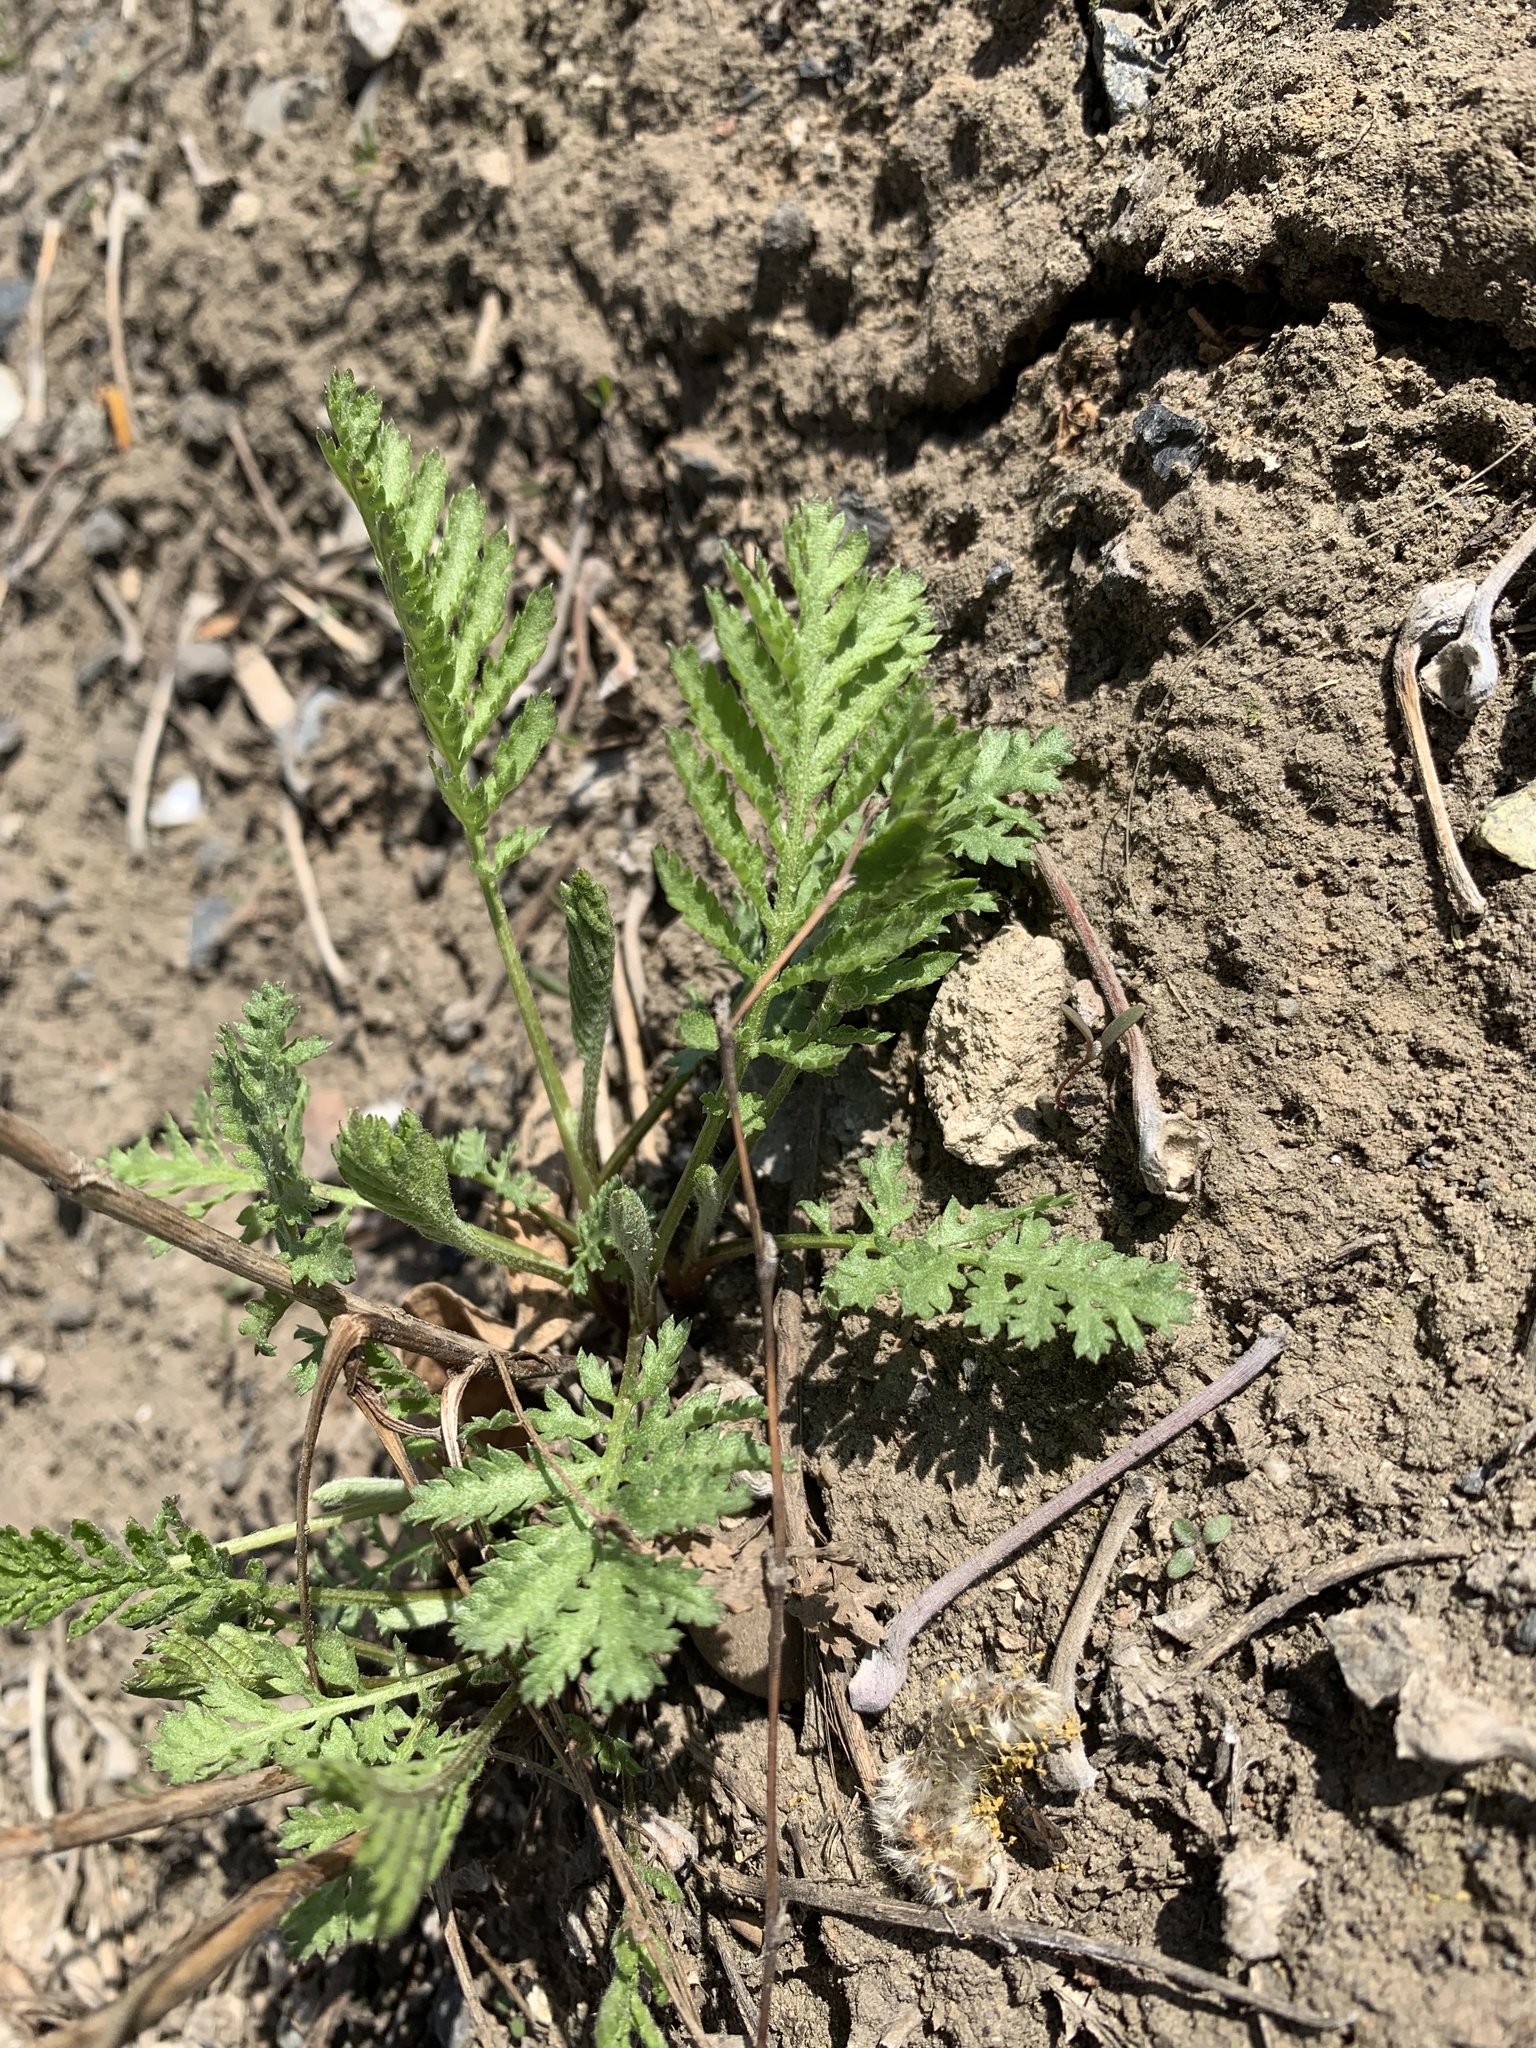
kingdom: Plantae
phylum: Tracheophyta
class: Magnoliopsida
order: Asterales
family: Asteraceae
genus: Tanacetum
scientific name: Tanacetum vulgare
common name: Common tansy
